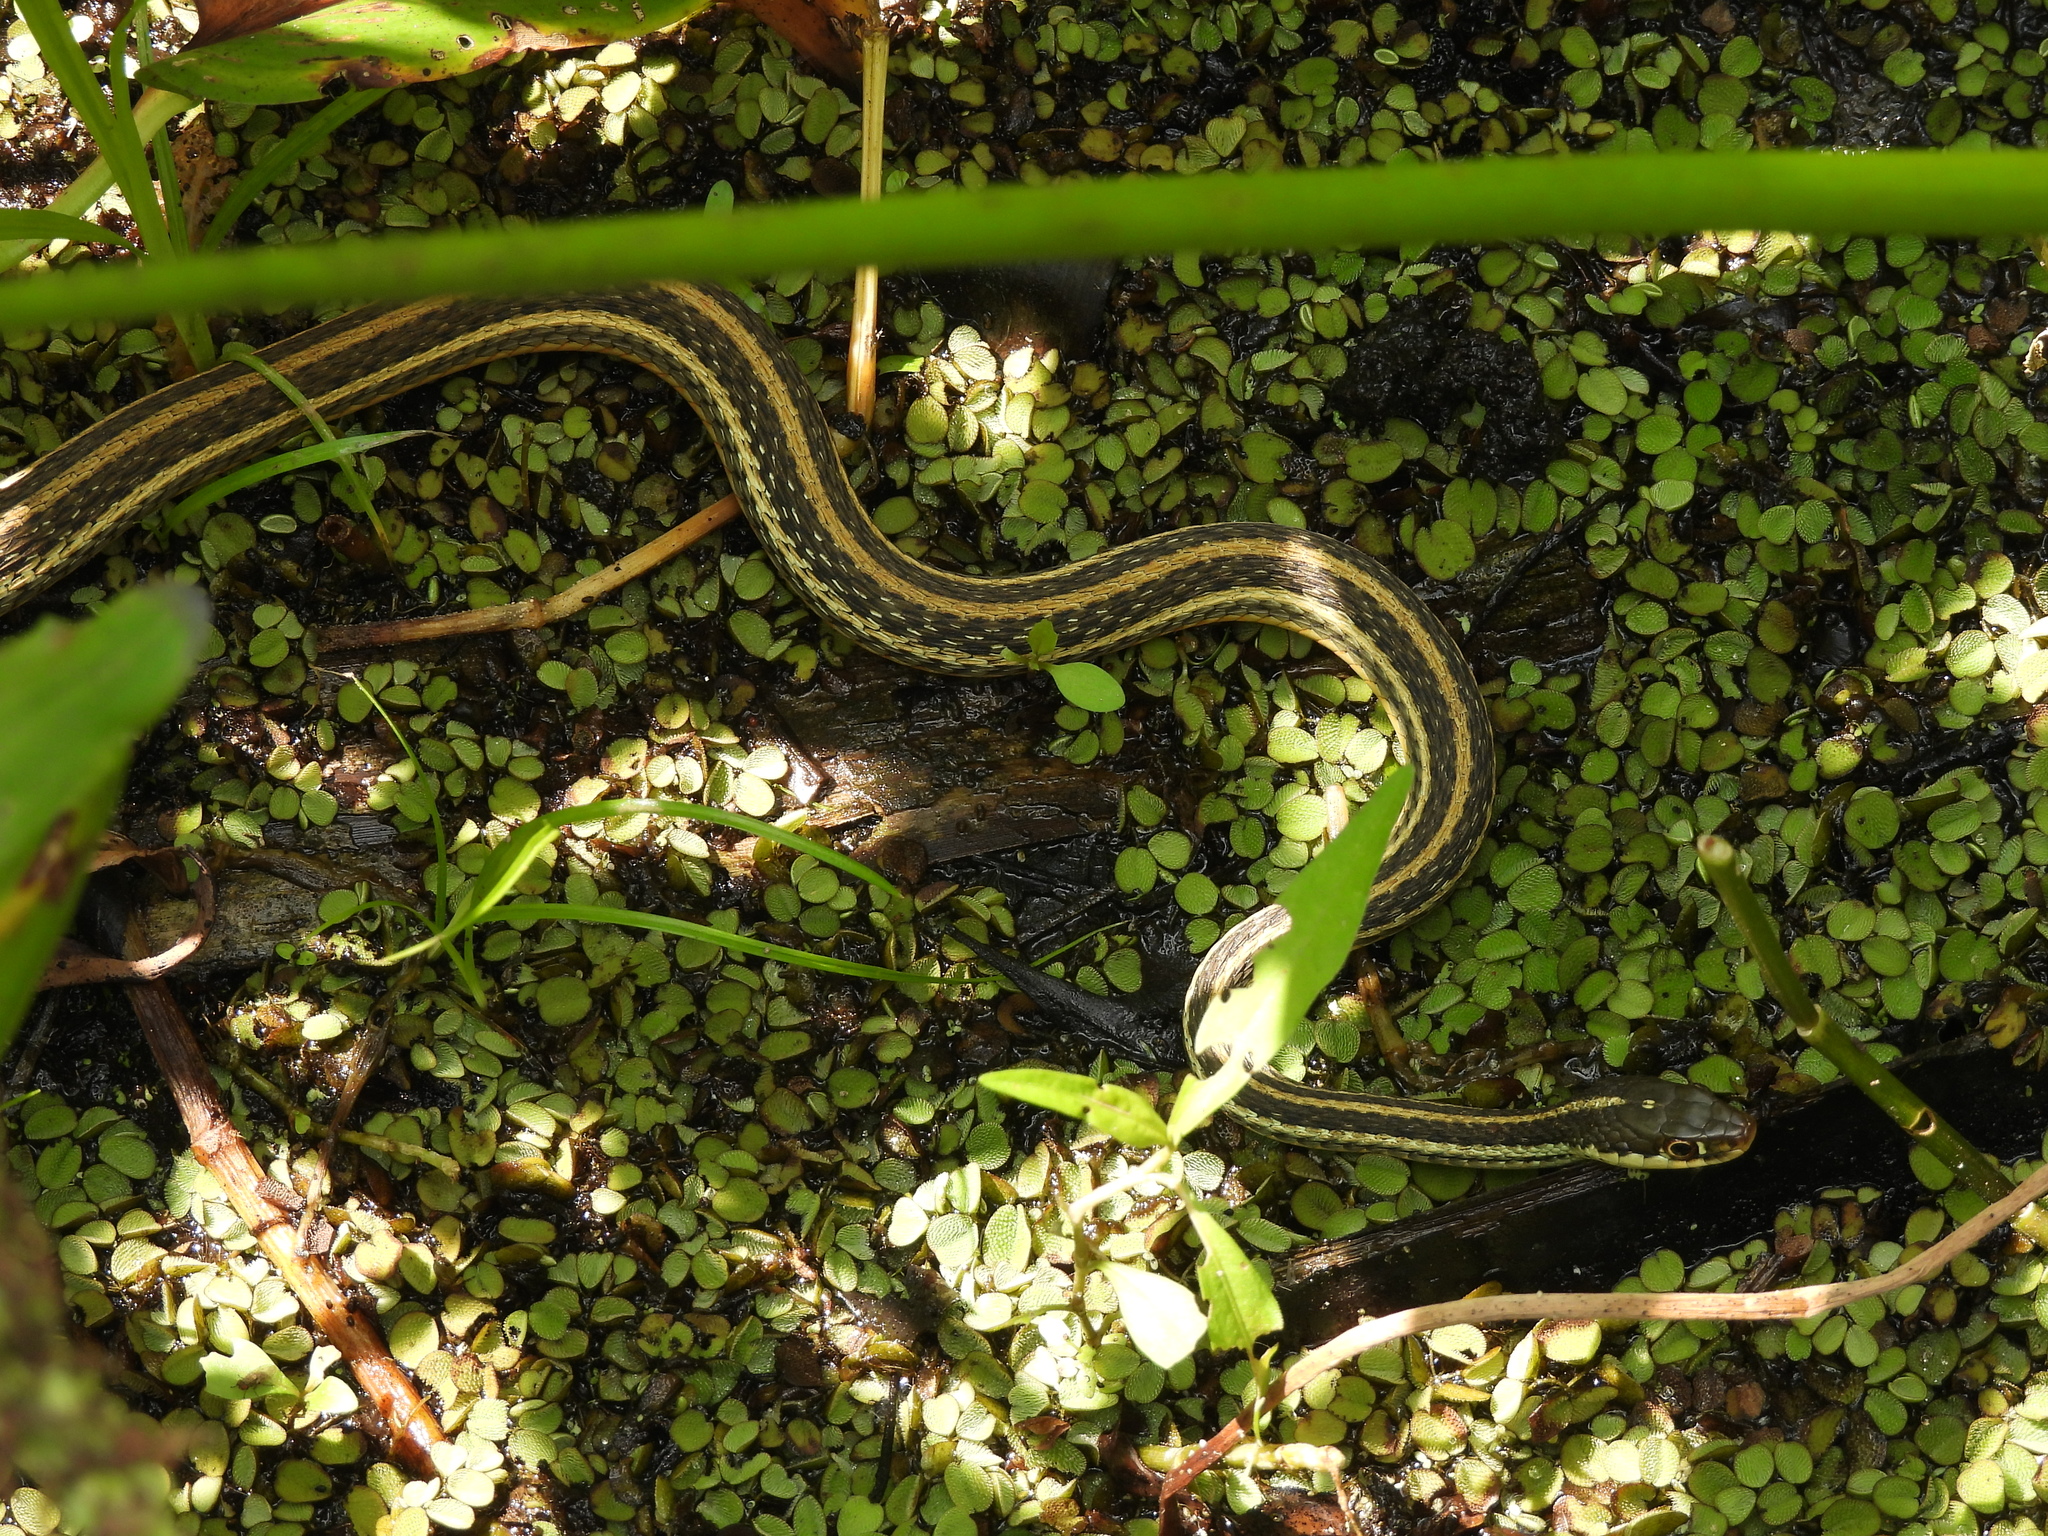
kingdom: Animalia
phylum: Chordata
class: Squamata
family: Colubridae
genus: Thamnophis
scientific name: Thamnophis proximus
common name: Western ribbon snake
